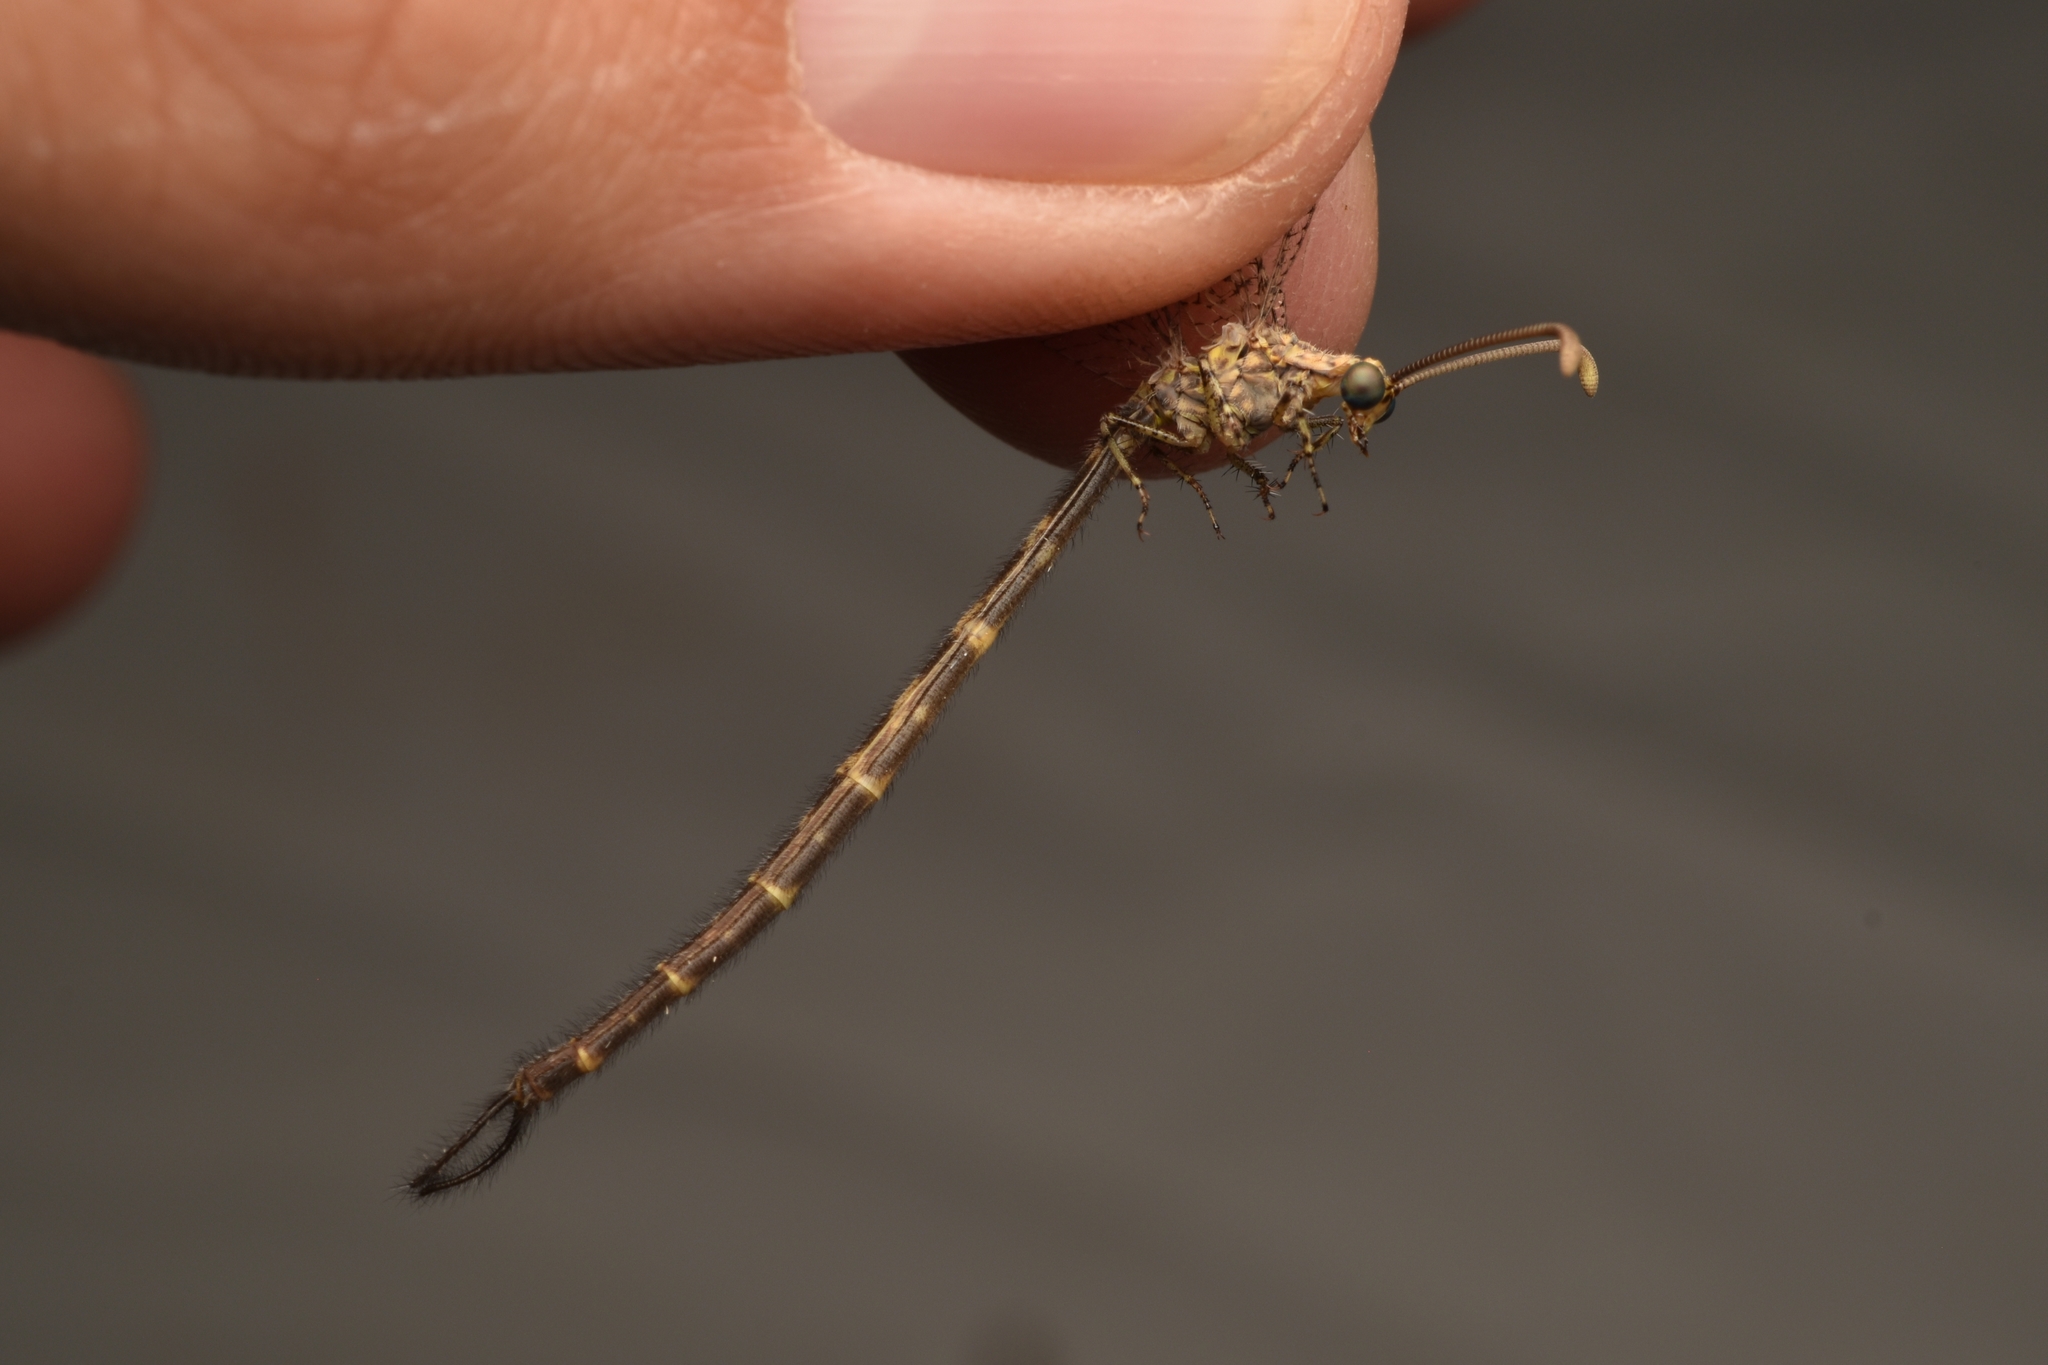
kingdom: Animalia
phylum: Arthropoda
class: Insecta
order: Neuroptera
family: Myrmeleontidae
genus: Brachynemurus
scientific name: Brachynemurus sackeni
